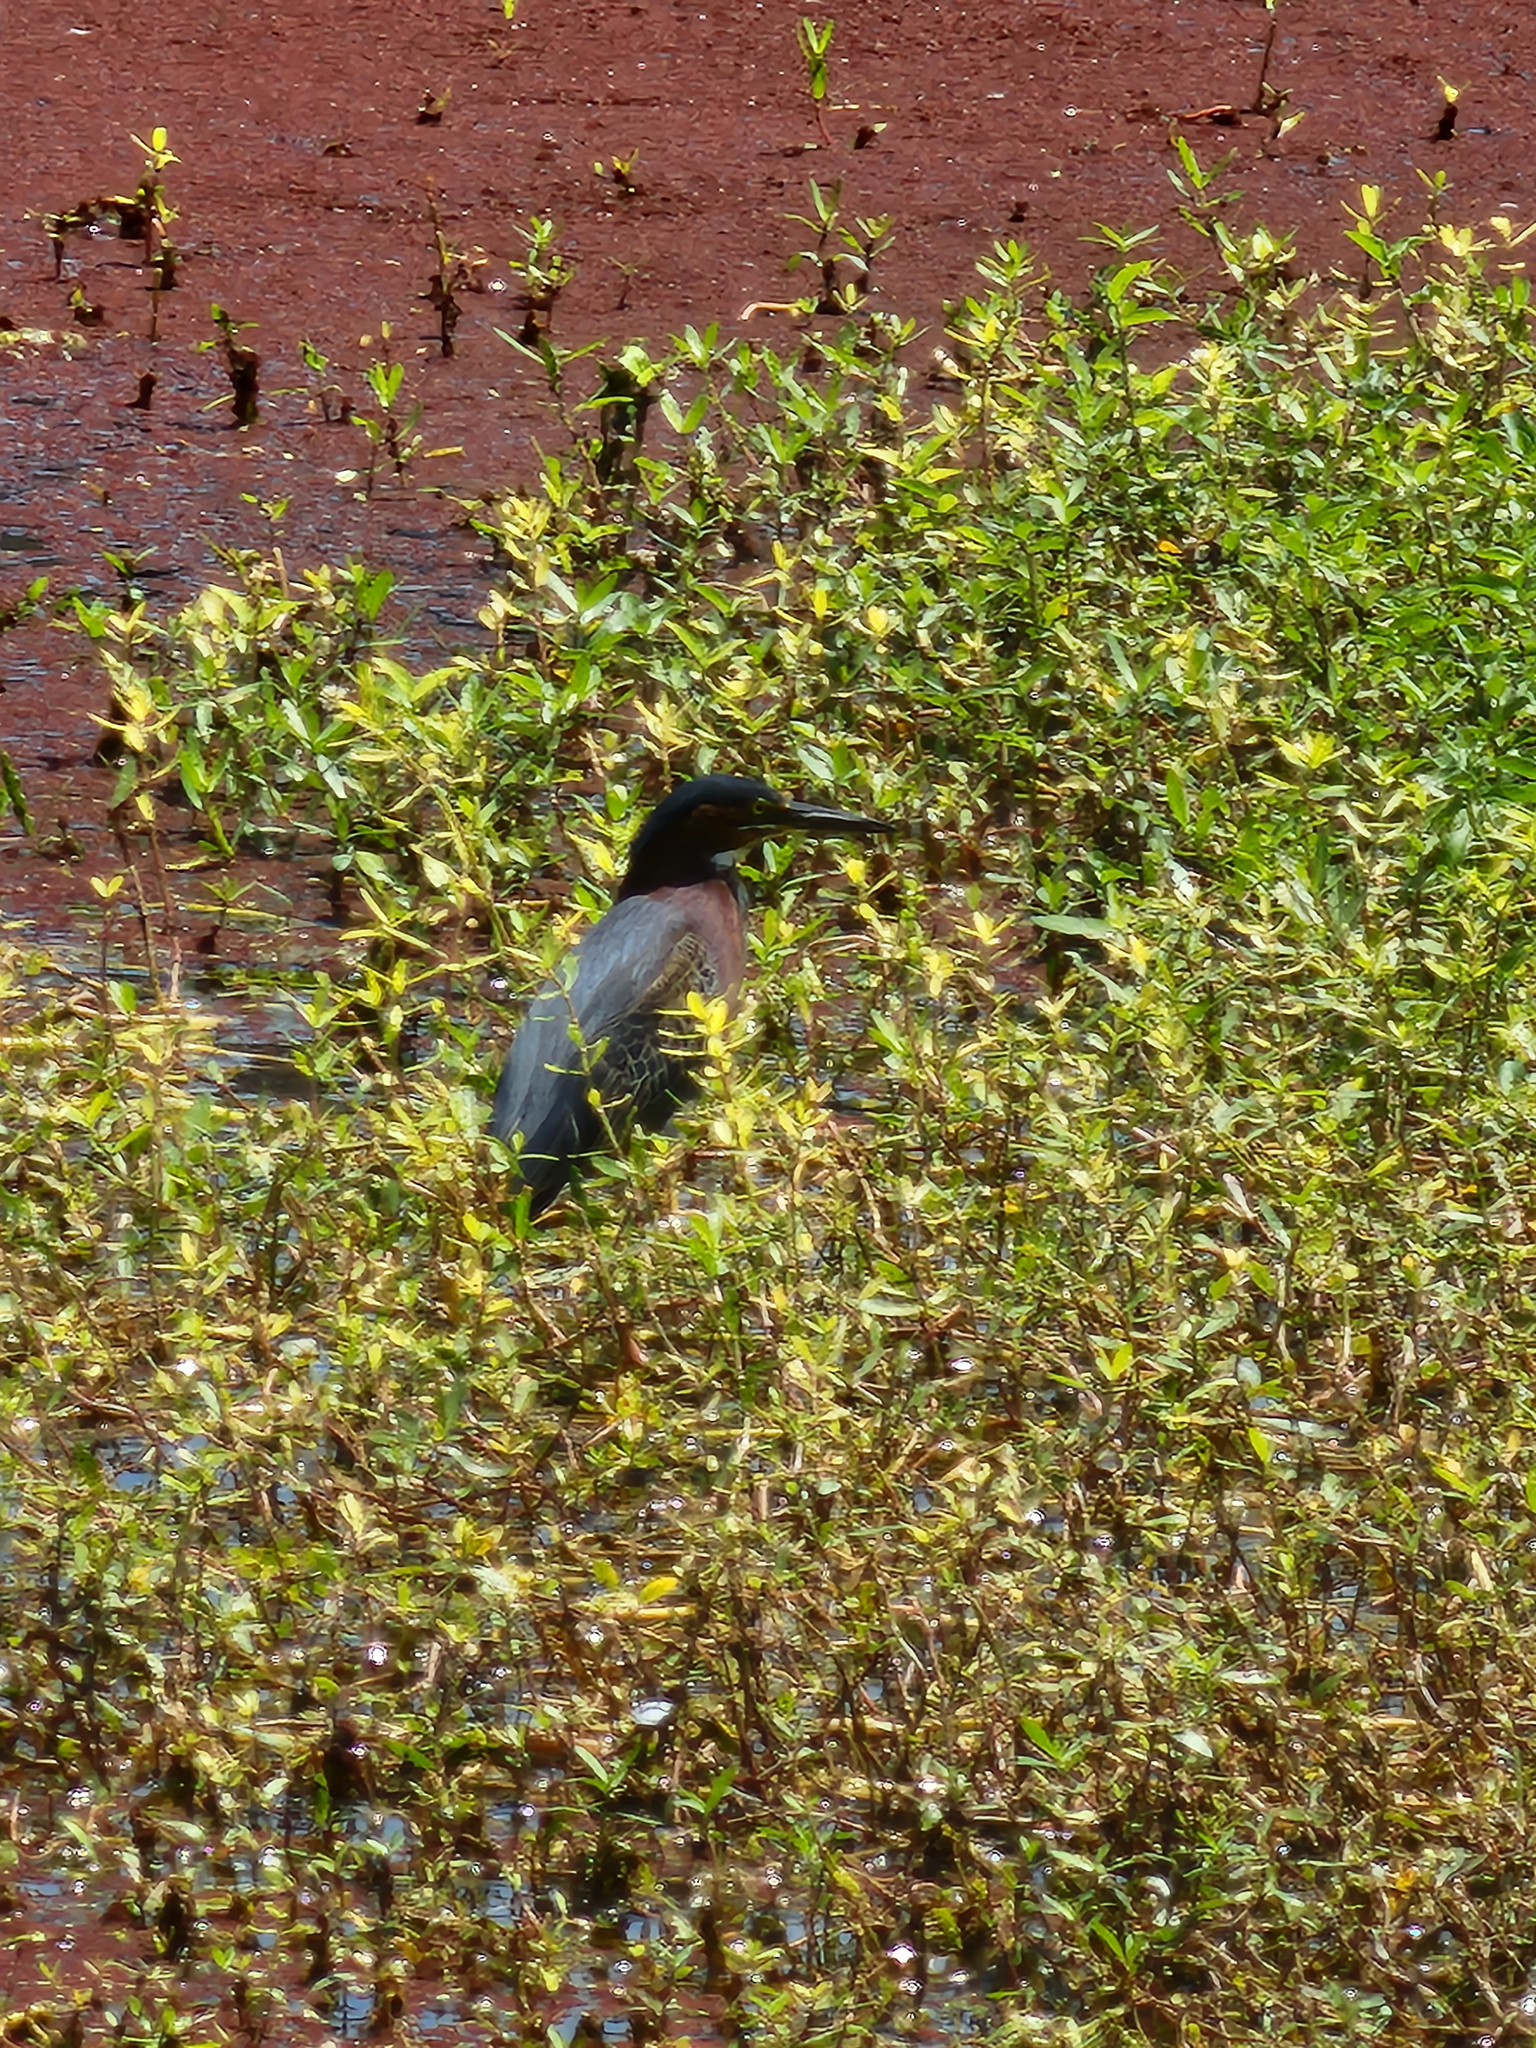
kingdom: Animalia
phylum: Chordata
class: Aves
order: Pelecaniformes
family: Ardeidae
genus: Butorides
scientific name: Butorides virescens
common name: Green heron
